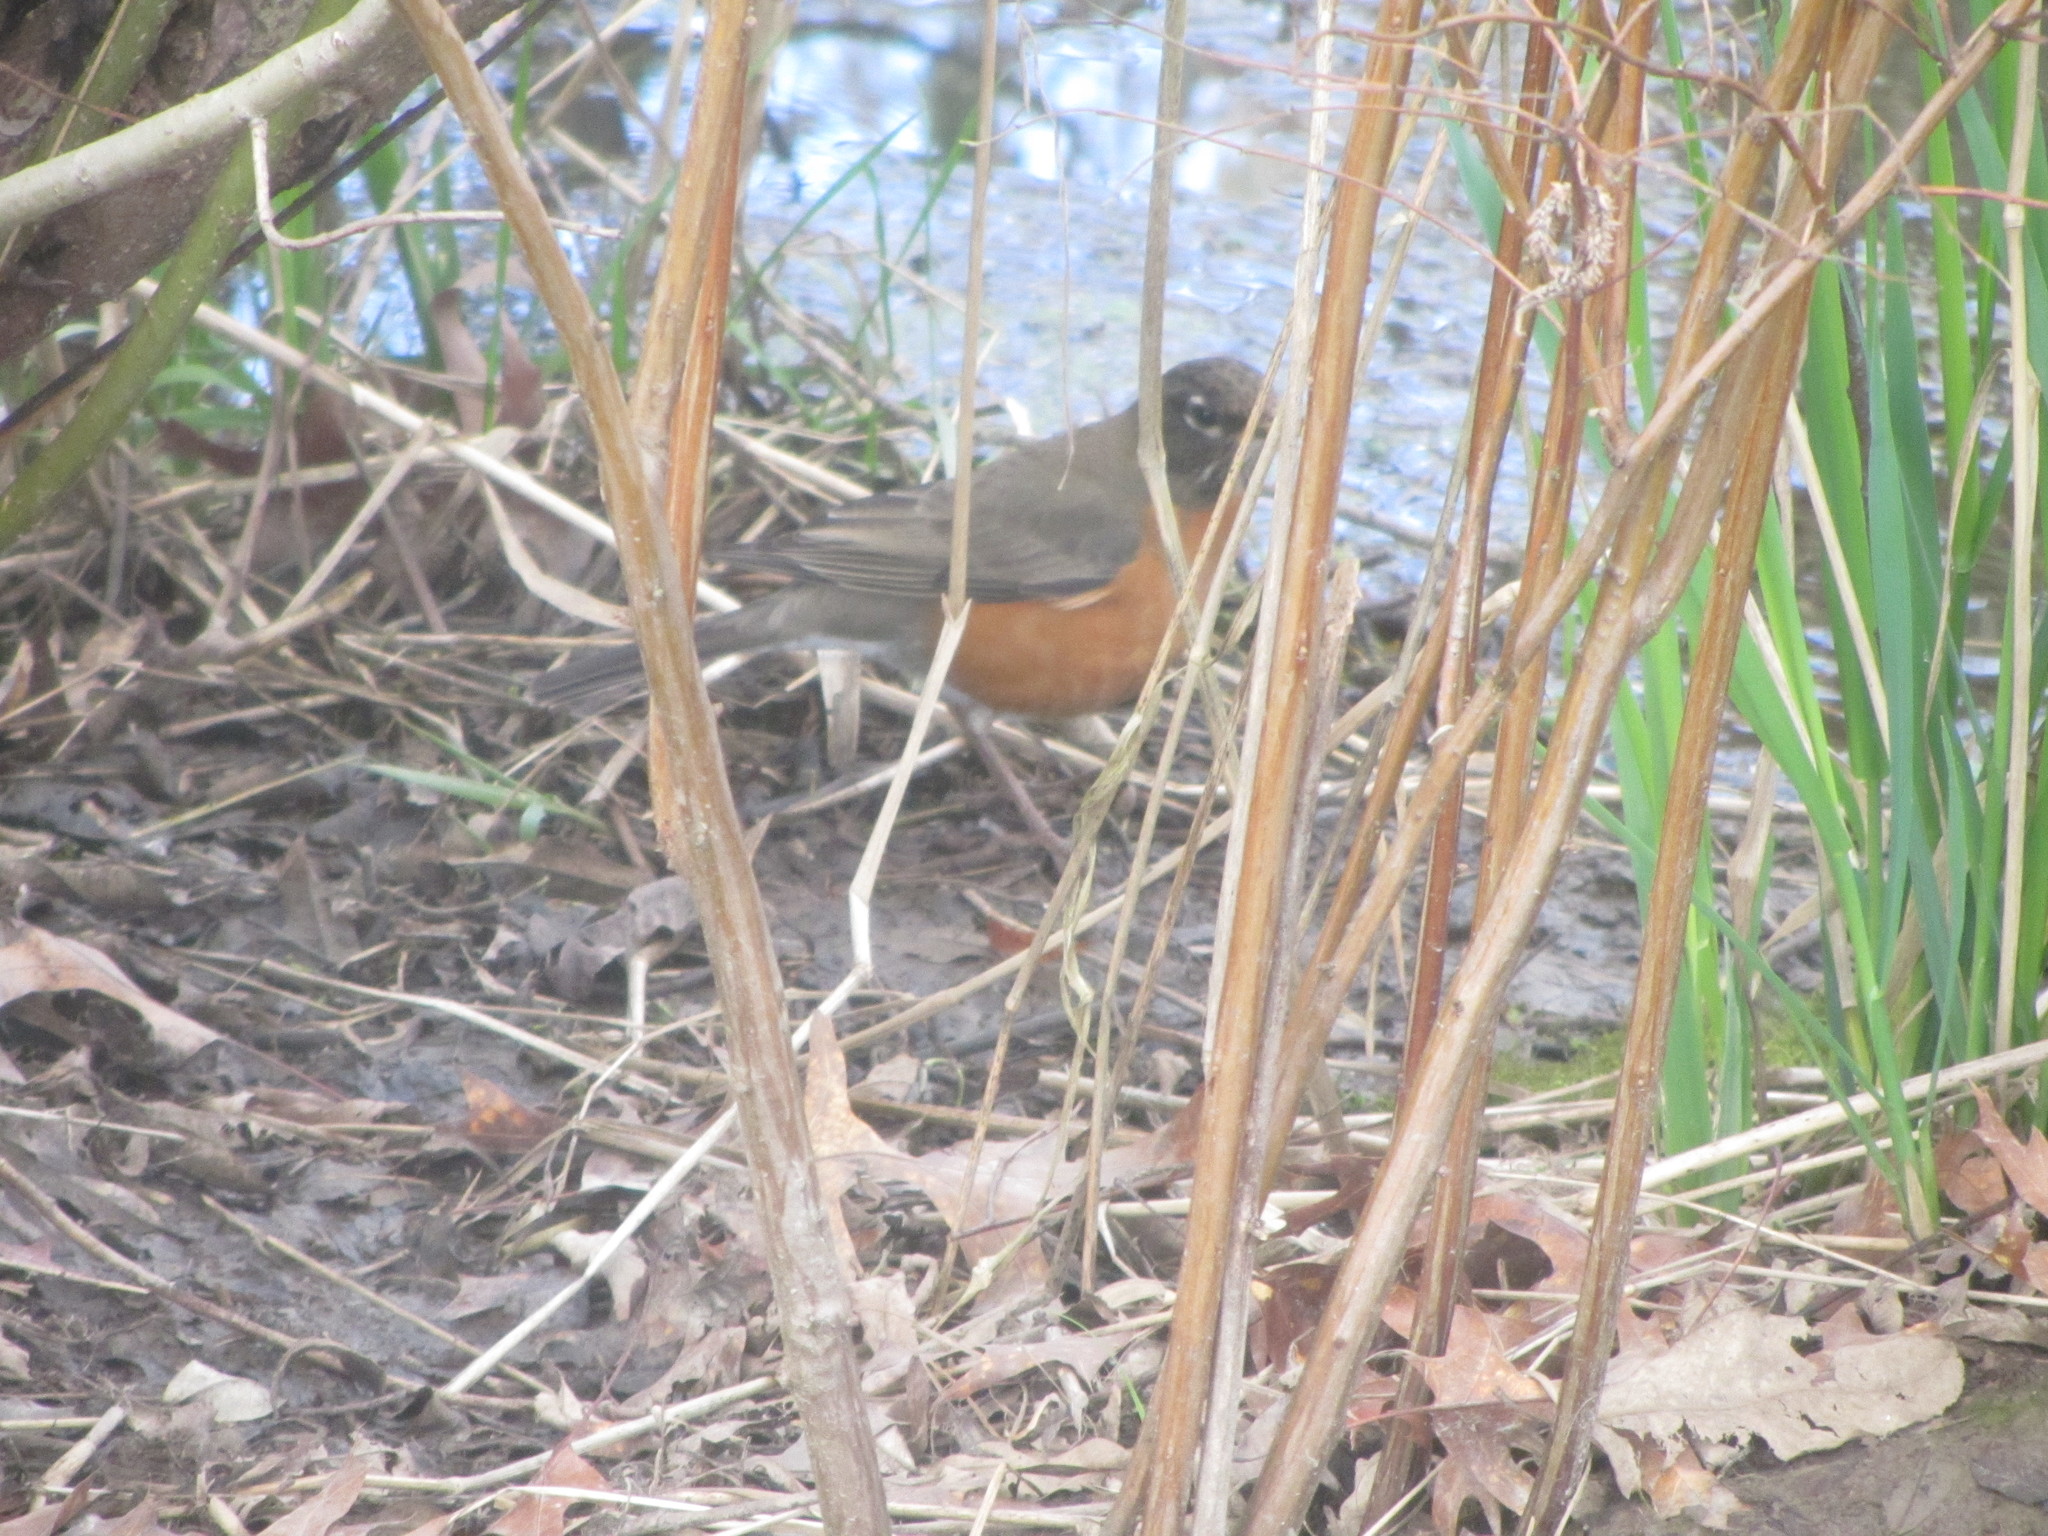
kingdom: Animalia
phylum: Chordata
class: Aves
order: Passeriformes
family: Turdidae
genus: Turdus
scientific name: Turdus migratorius
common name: American robin
